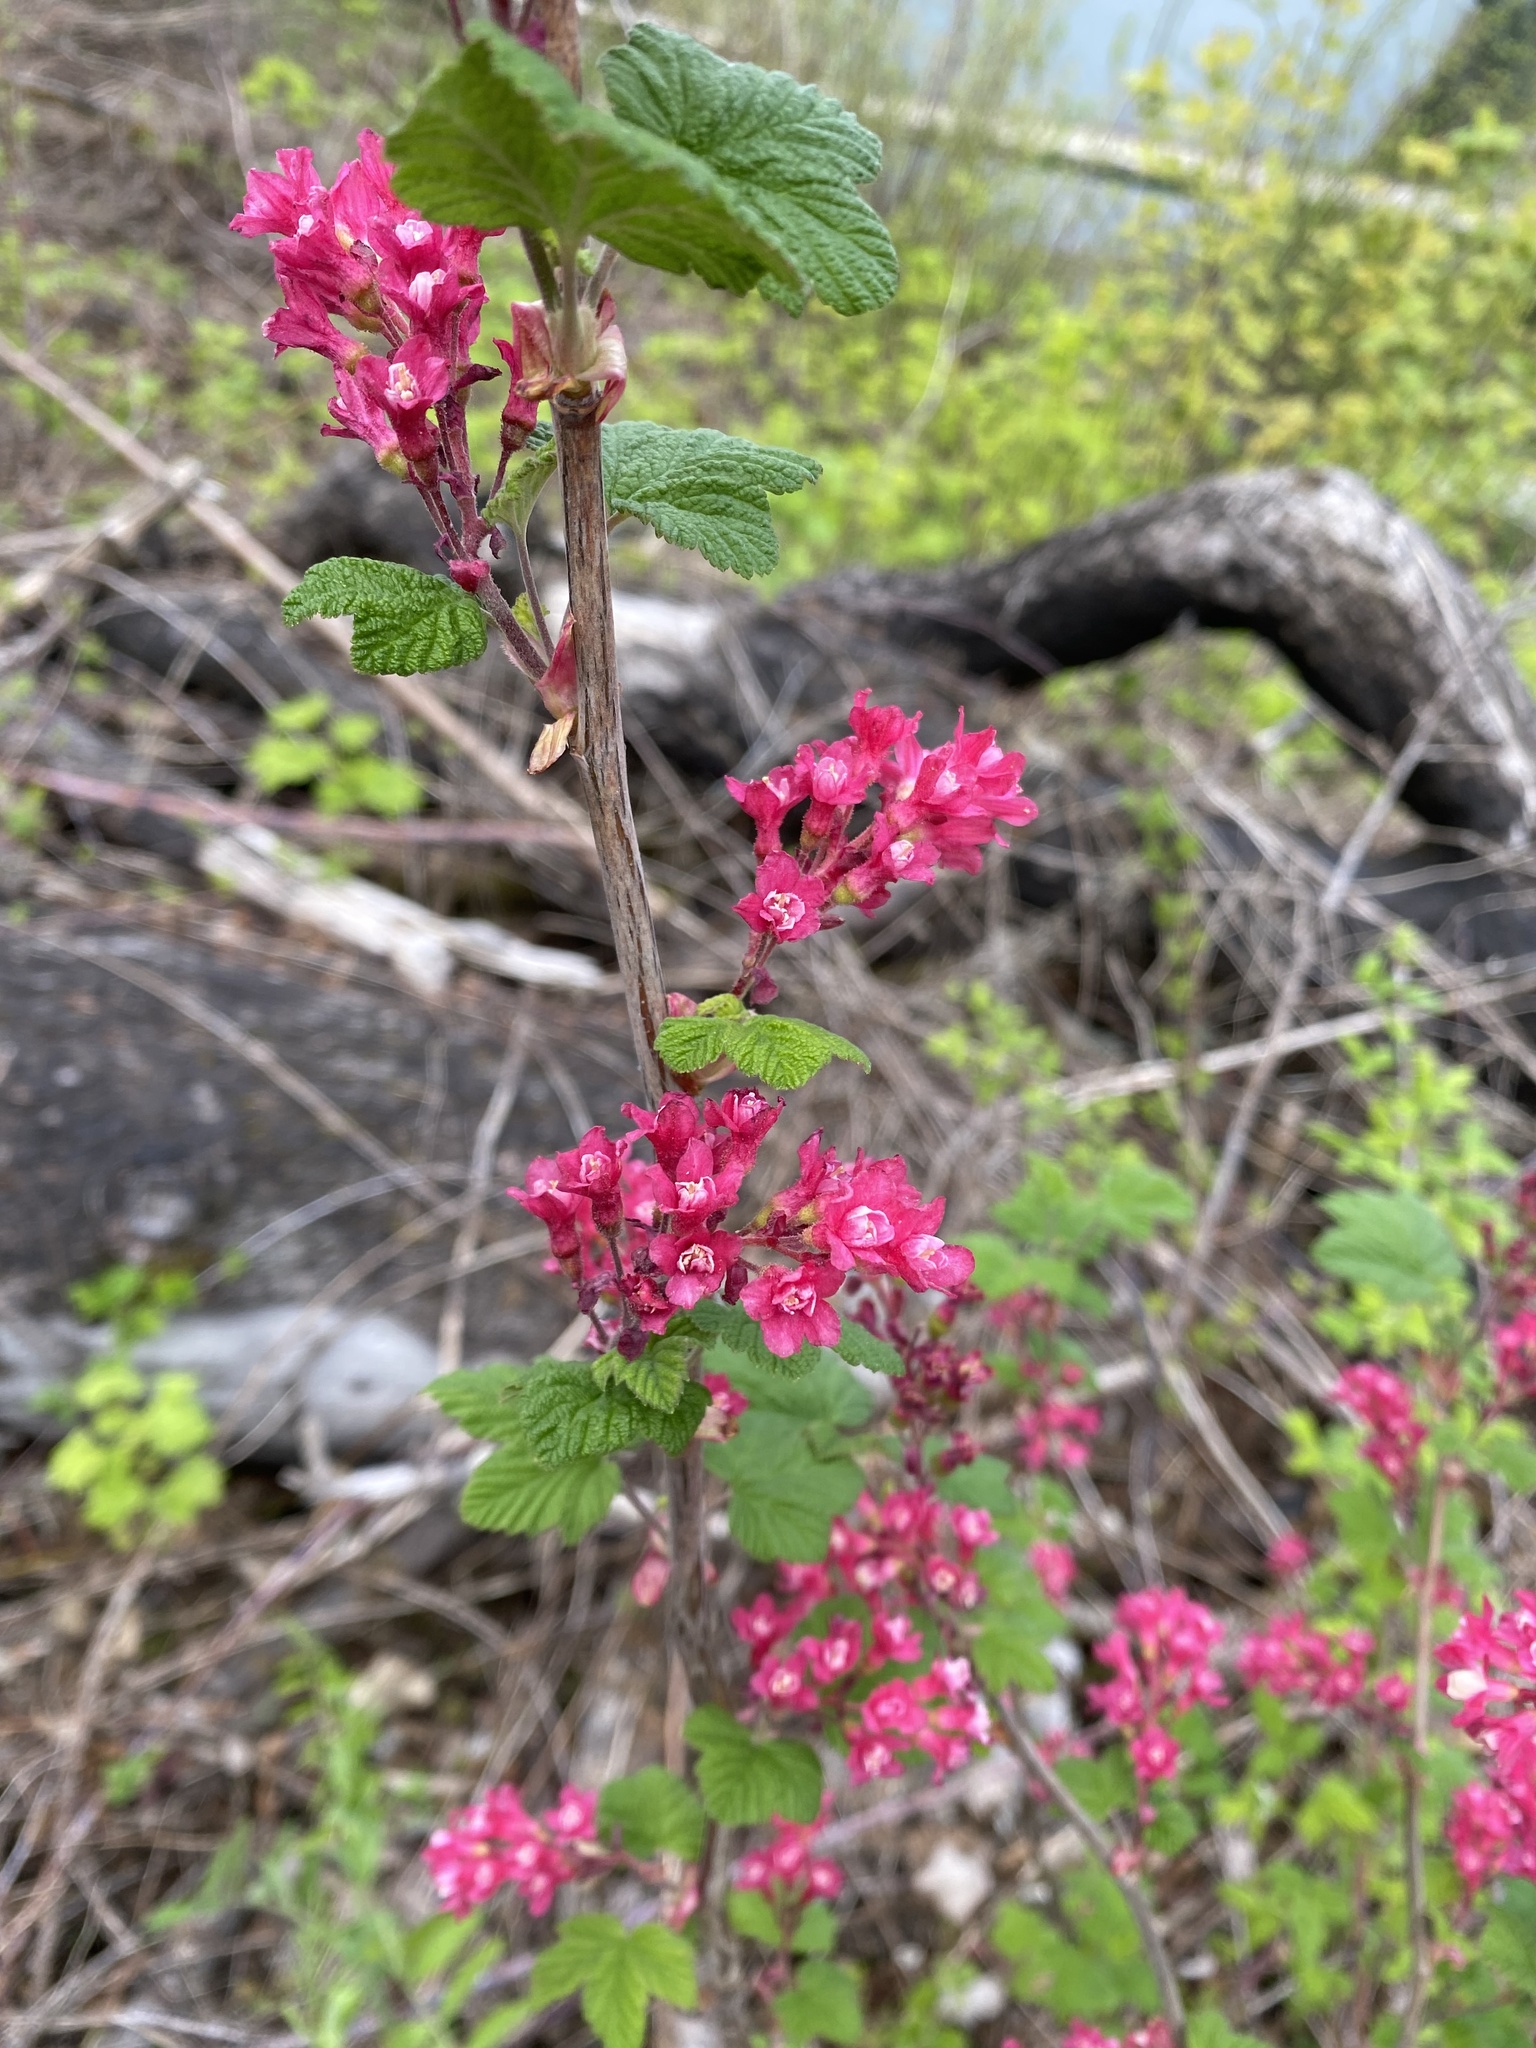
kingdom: Plantae
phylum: Tracheophyta
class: Magnoliopsida
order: Saxifragales
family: Grossulariaceae
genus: Ribes
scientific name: Ribes sanguineum
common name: Flowering currant
